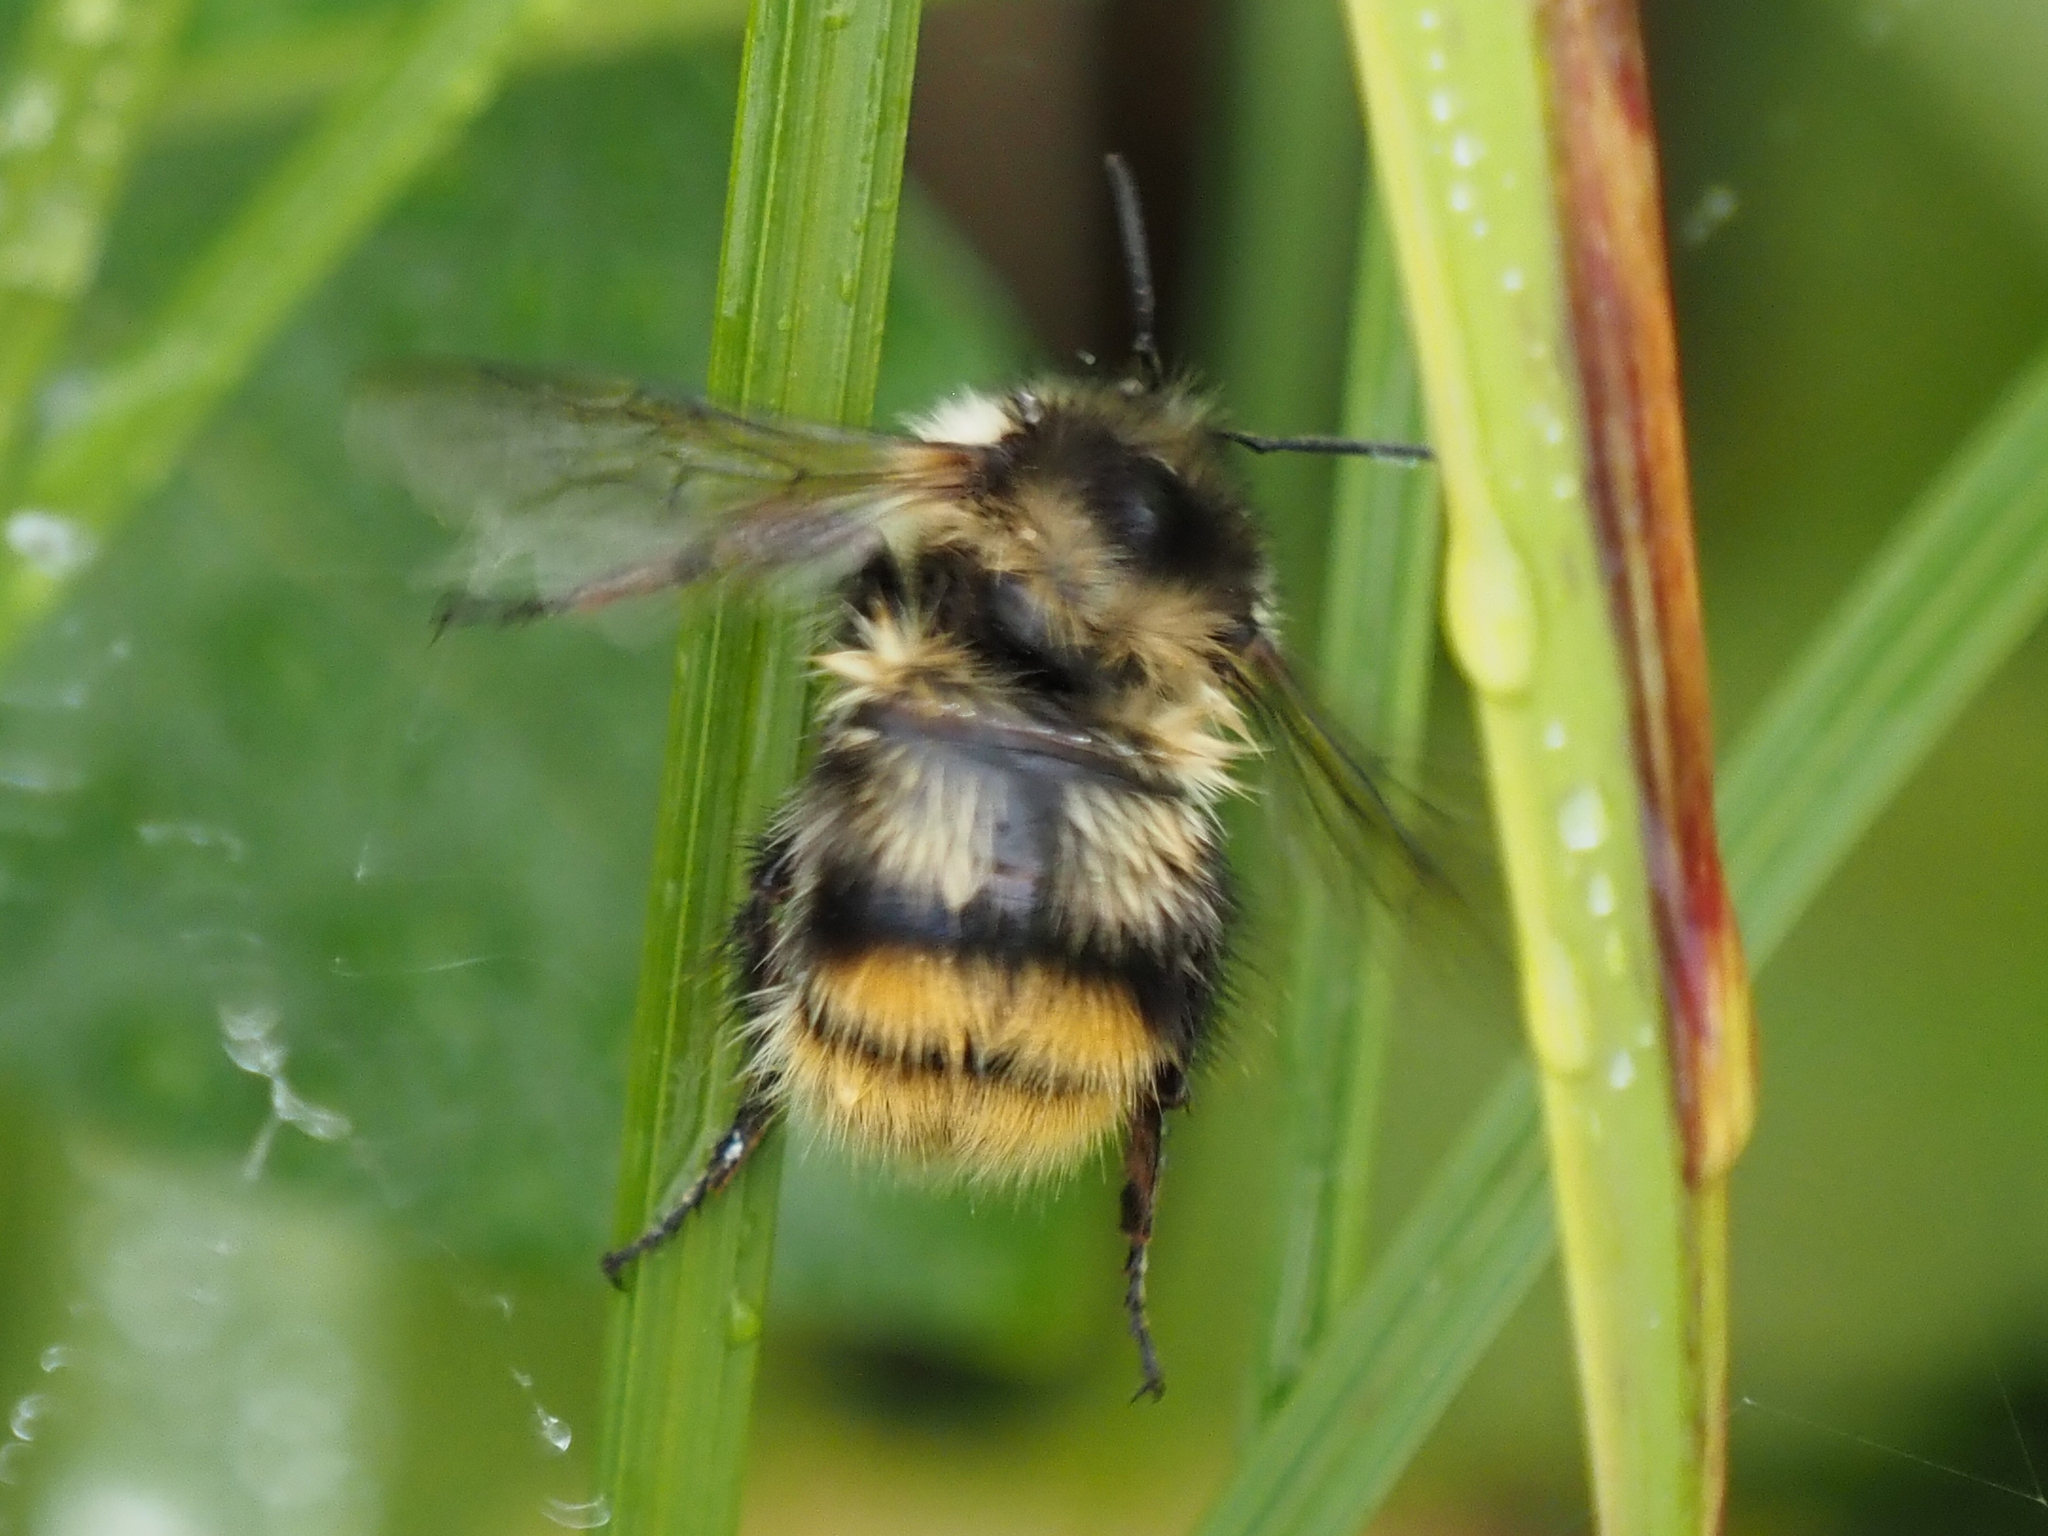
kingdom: Animalia
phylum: Arthropoda
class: Insecta
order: Hymenoptera
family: Apidae
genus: Bombus
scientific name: Bombus mixtus
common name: Fuzzy-horned bumble bee
